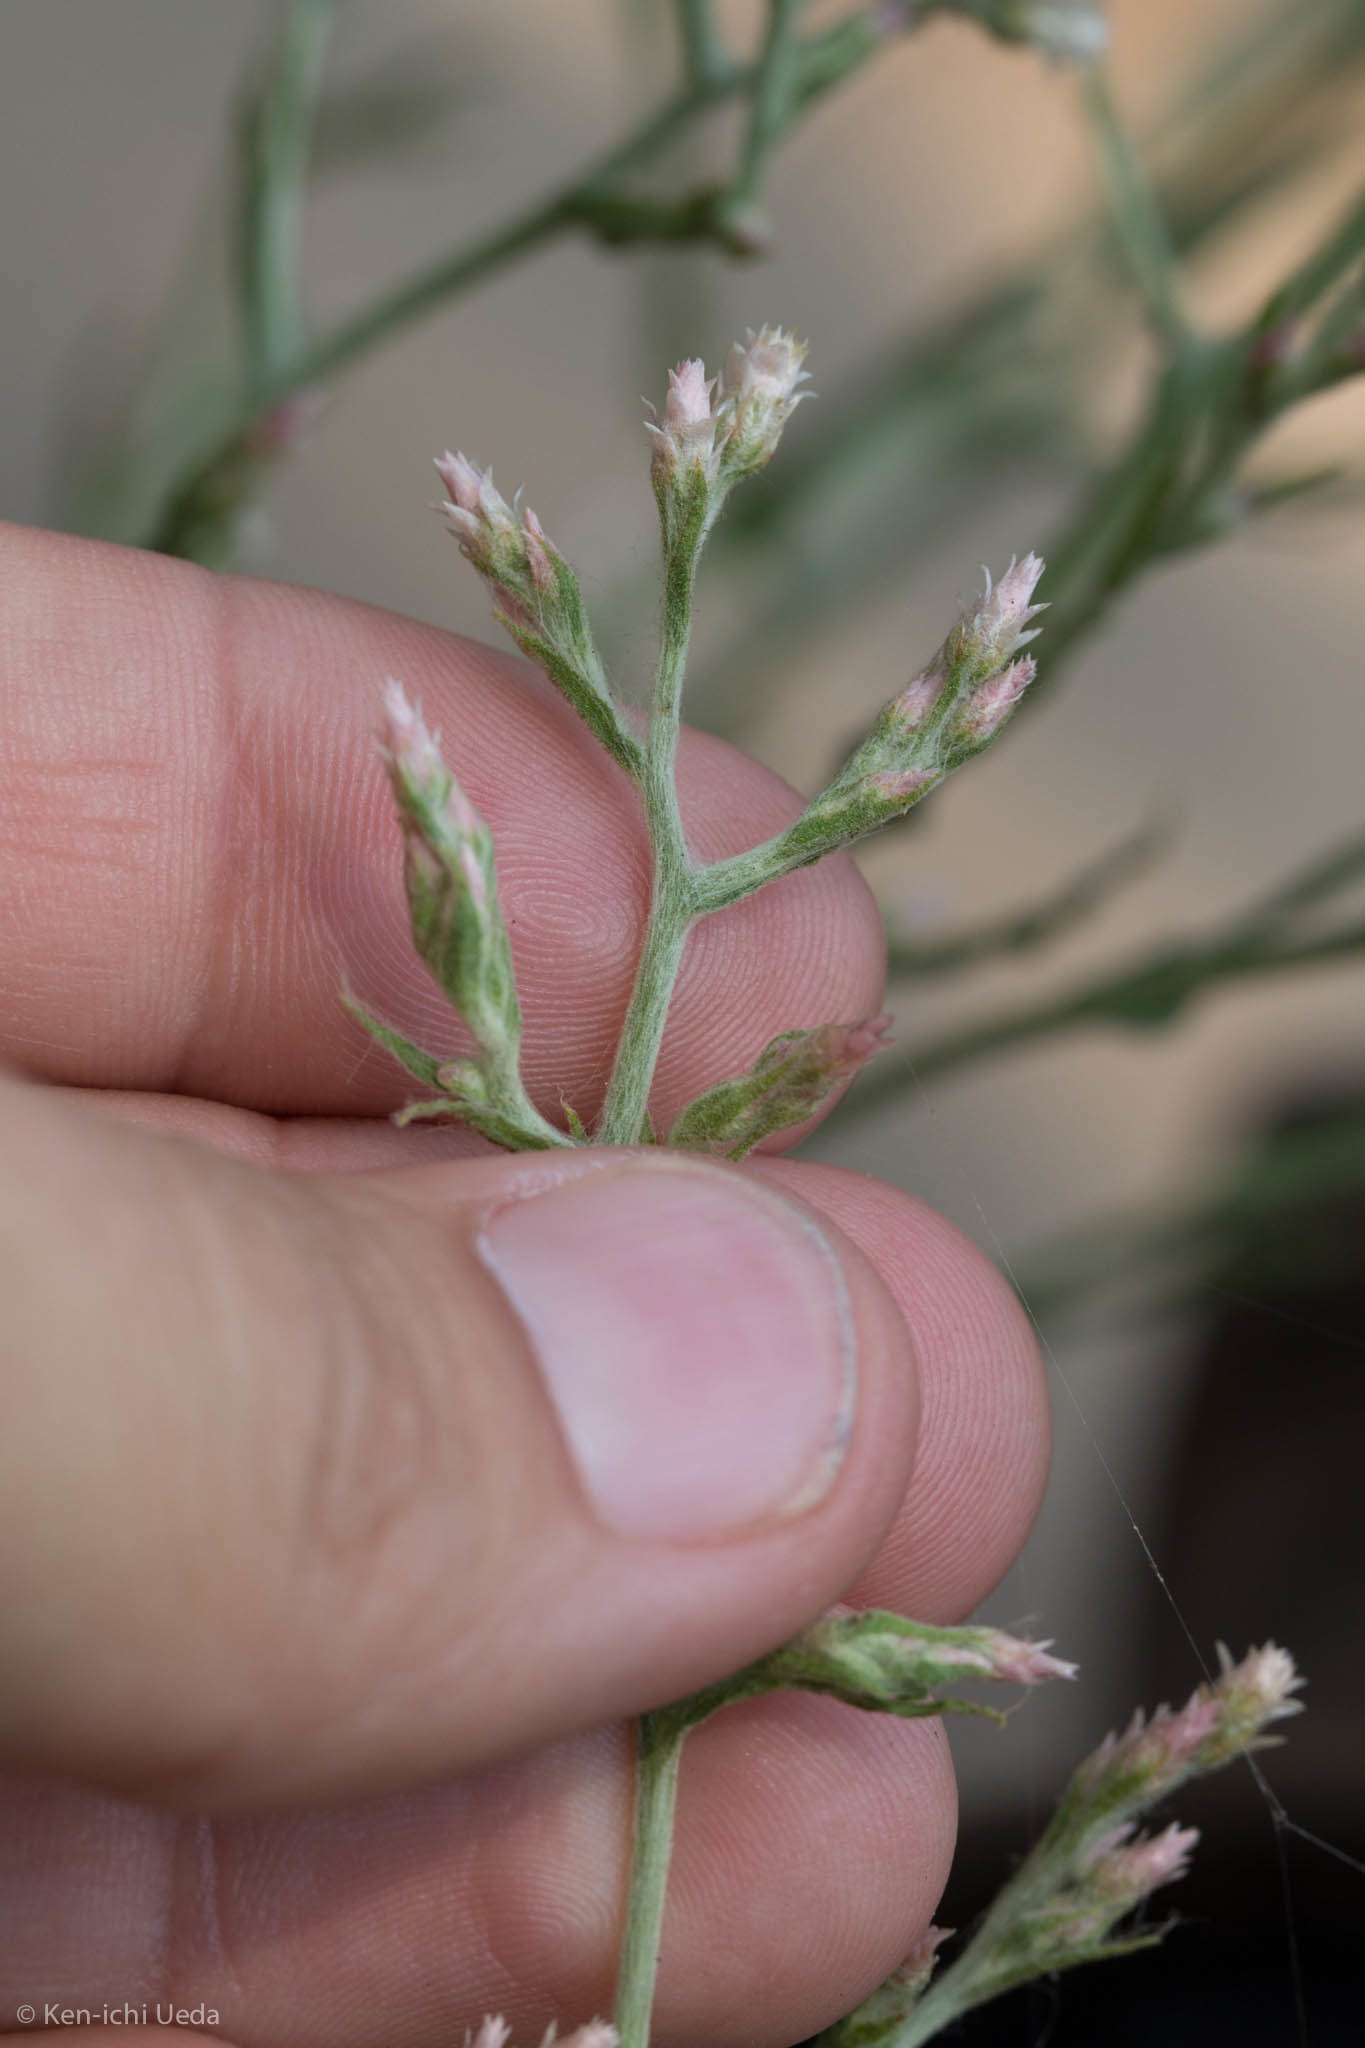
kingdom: Plantae
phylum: Tracheophyta
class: Magnoliopsida
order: Asterales
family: Asteraceae
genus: Pseudognaphalium
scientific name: Pseudognaphalium ramosissimum
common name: Pink rabbit-tobacco
